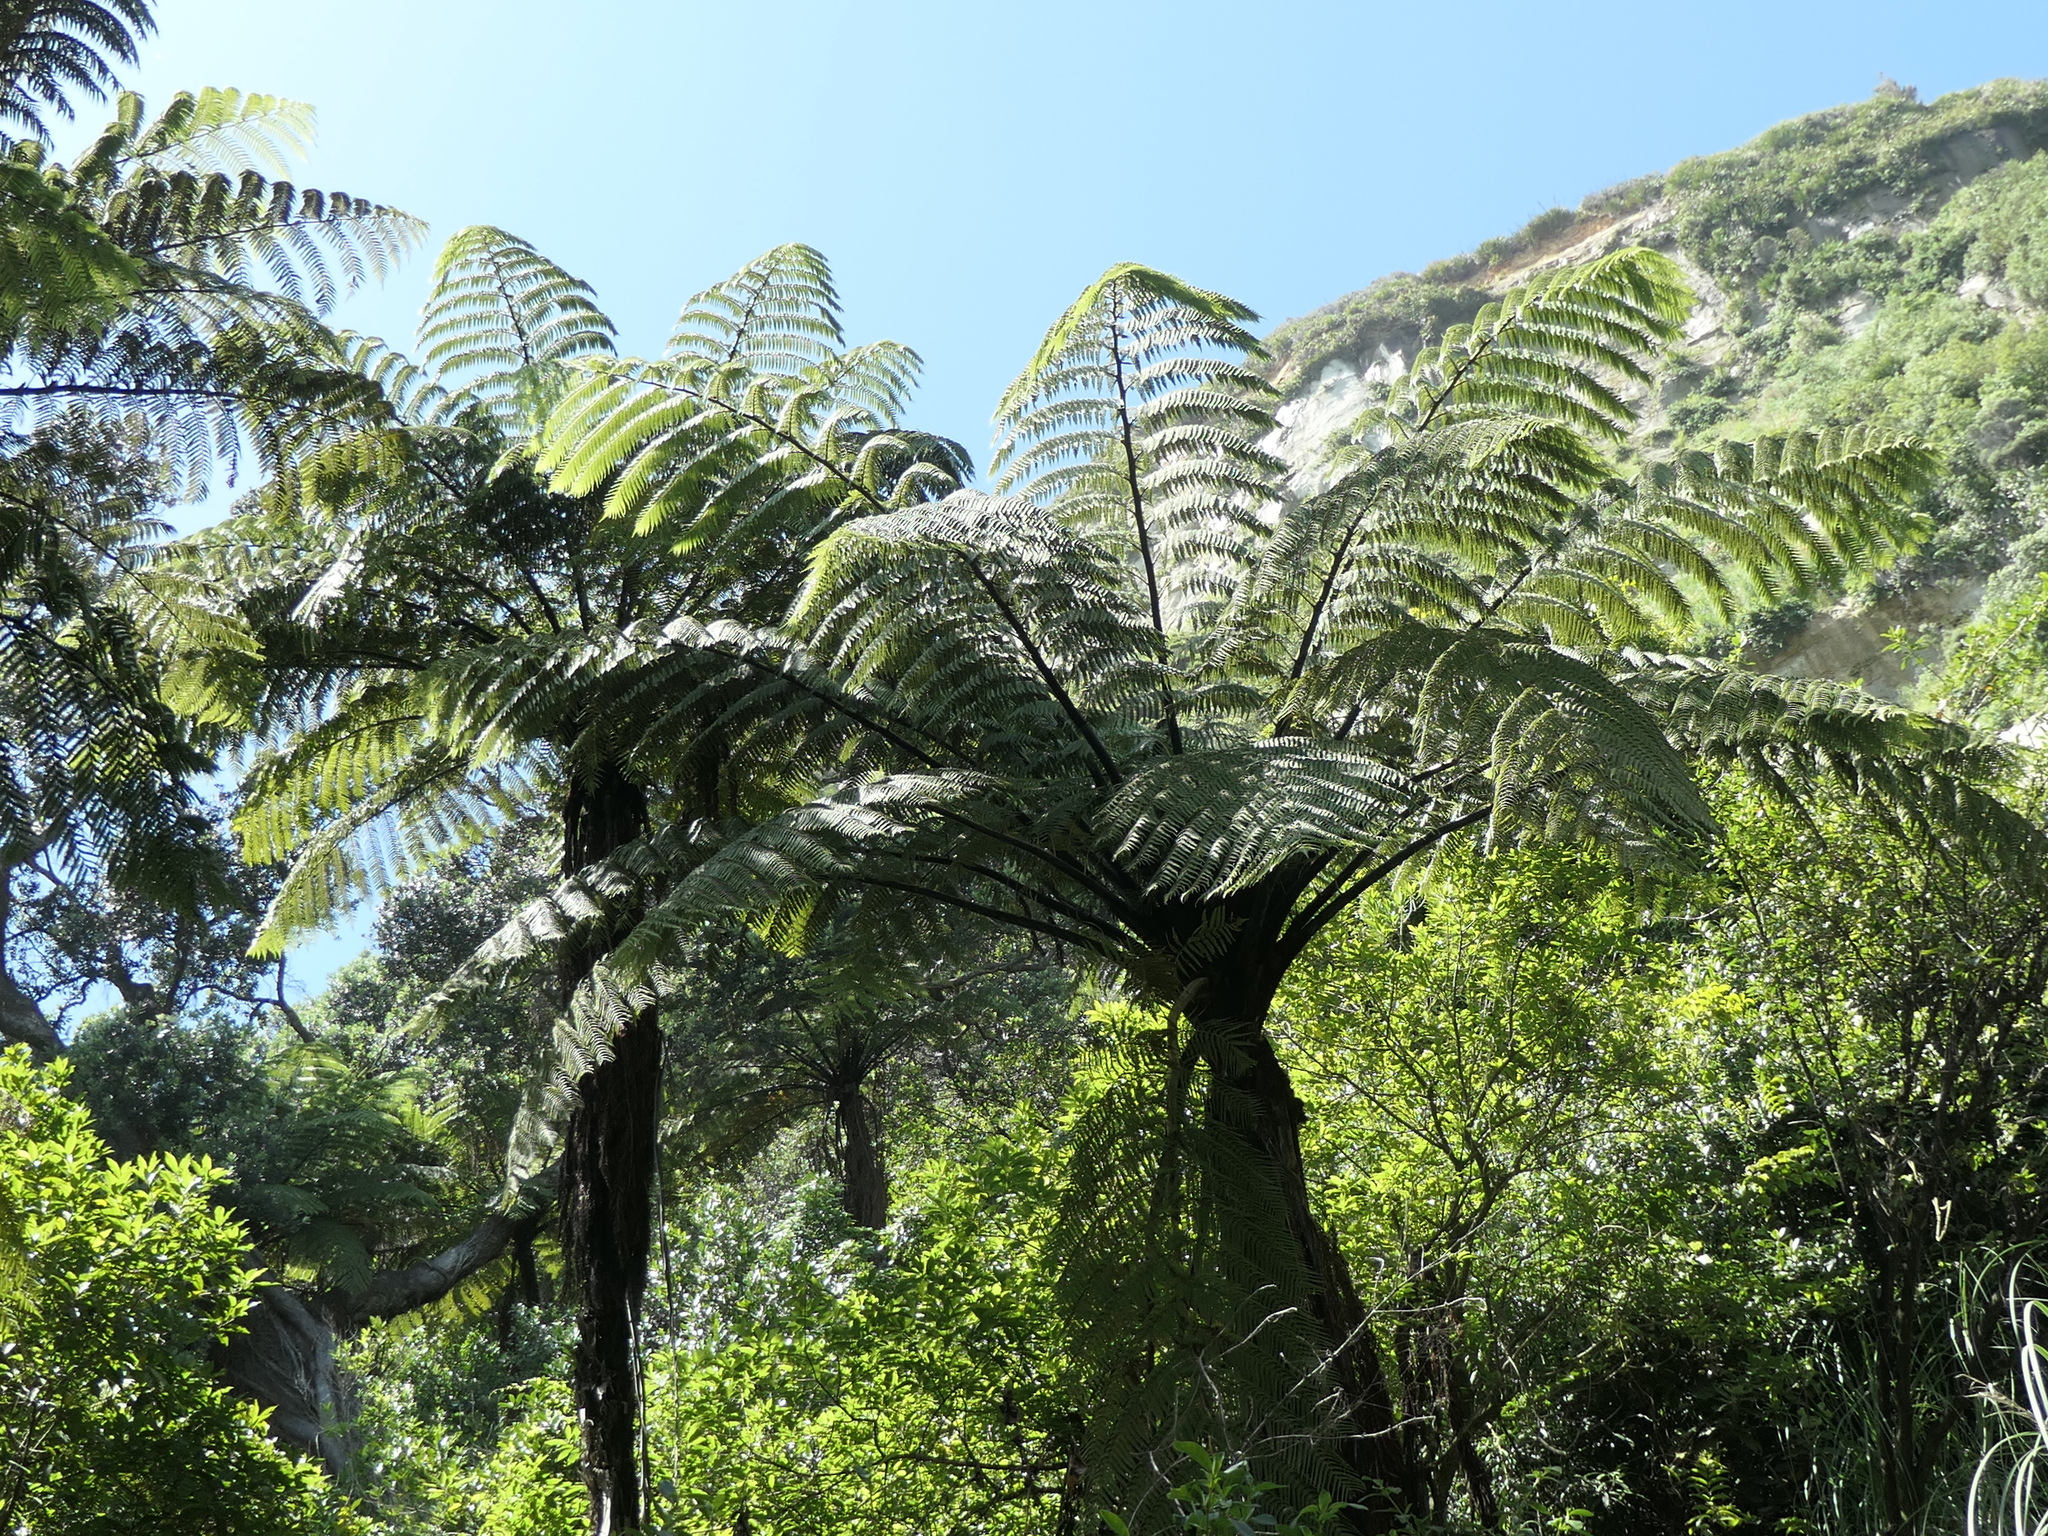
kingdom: Plantae
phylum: Tracheophyta
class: Polypodiopsida
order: Cyatheales
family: Cyatheaceae
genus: Sphaeropteris
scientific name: Sphaeropteris medullaris
